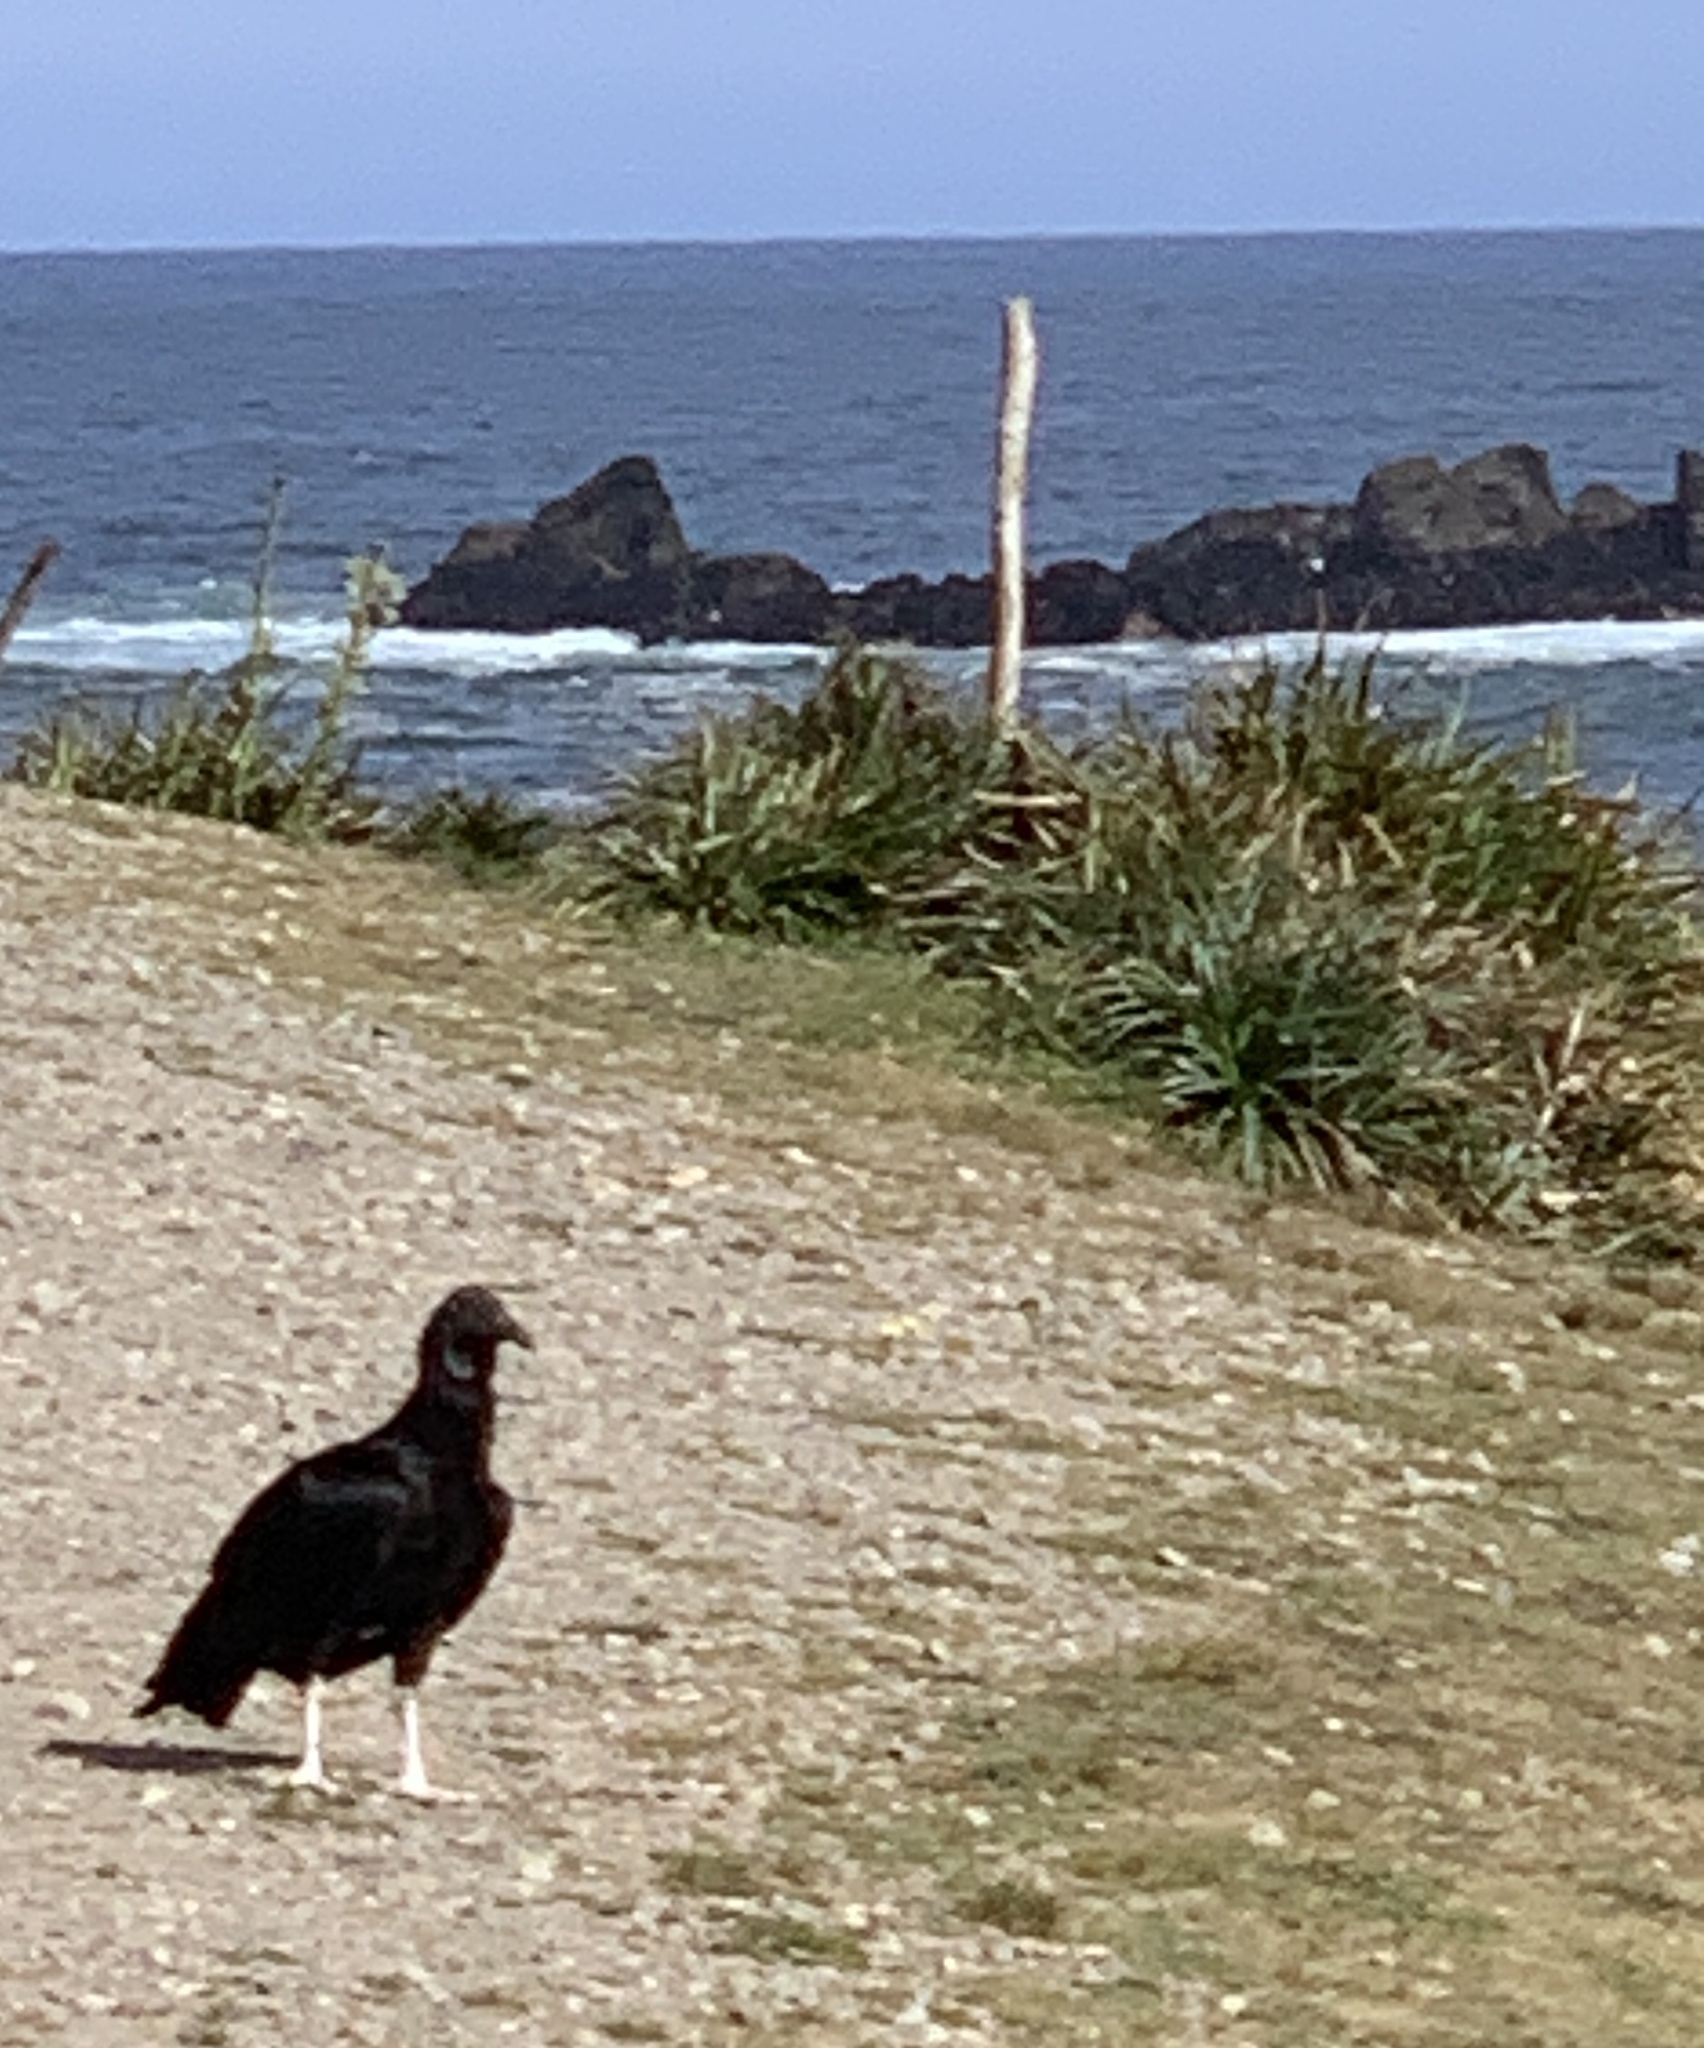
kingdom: Animalia
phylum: Chordata
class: Aves
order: Accipitriformes
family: Cathartidae
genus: Coragyps
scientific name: Coragyps atratus
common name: Black vulture
